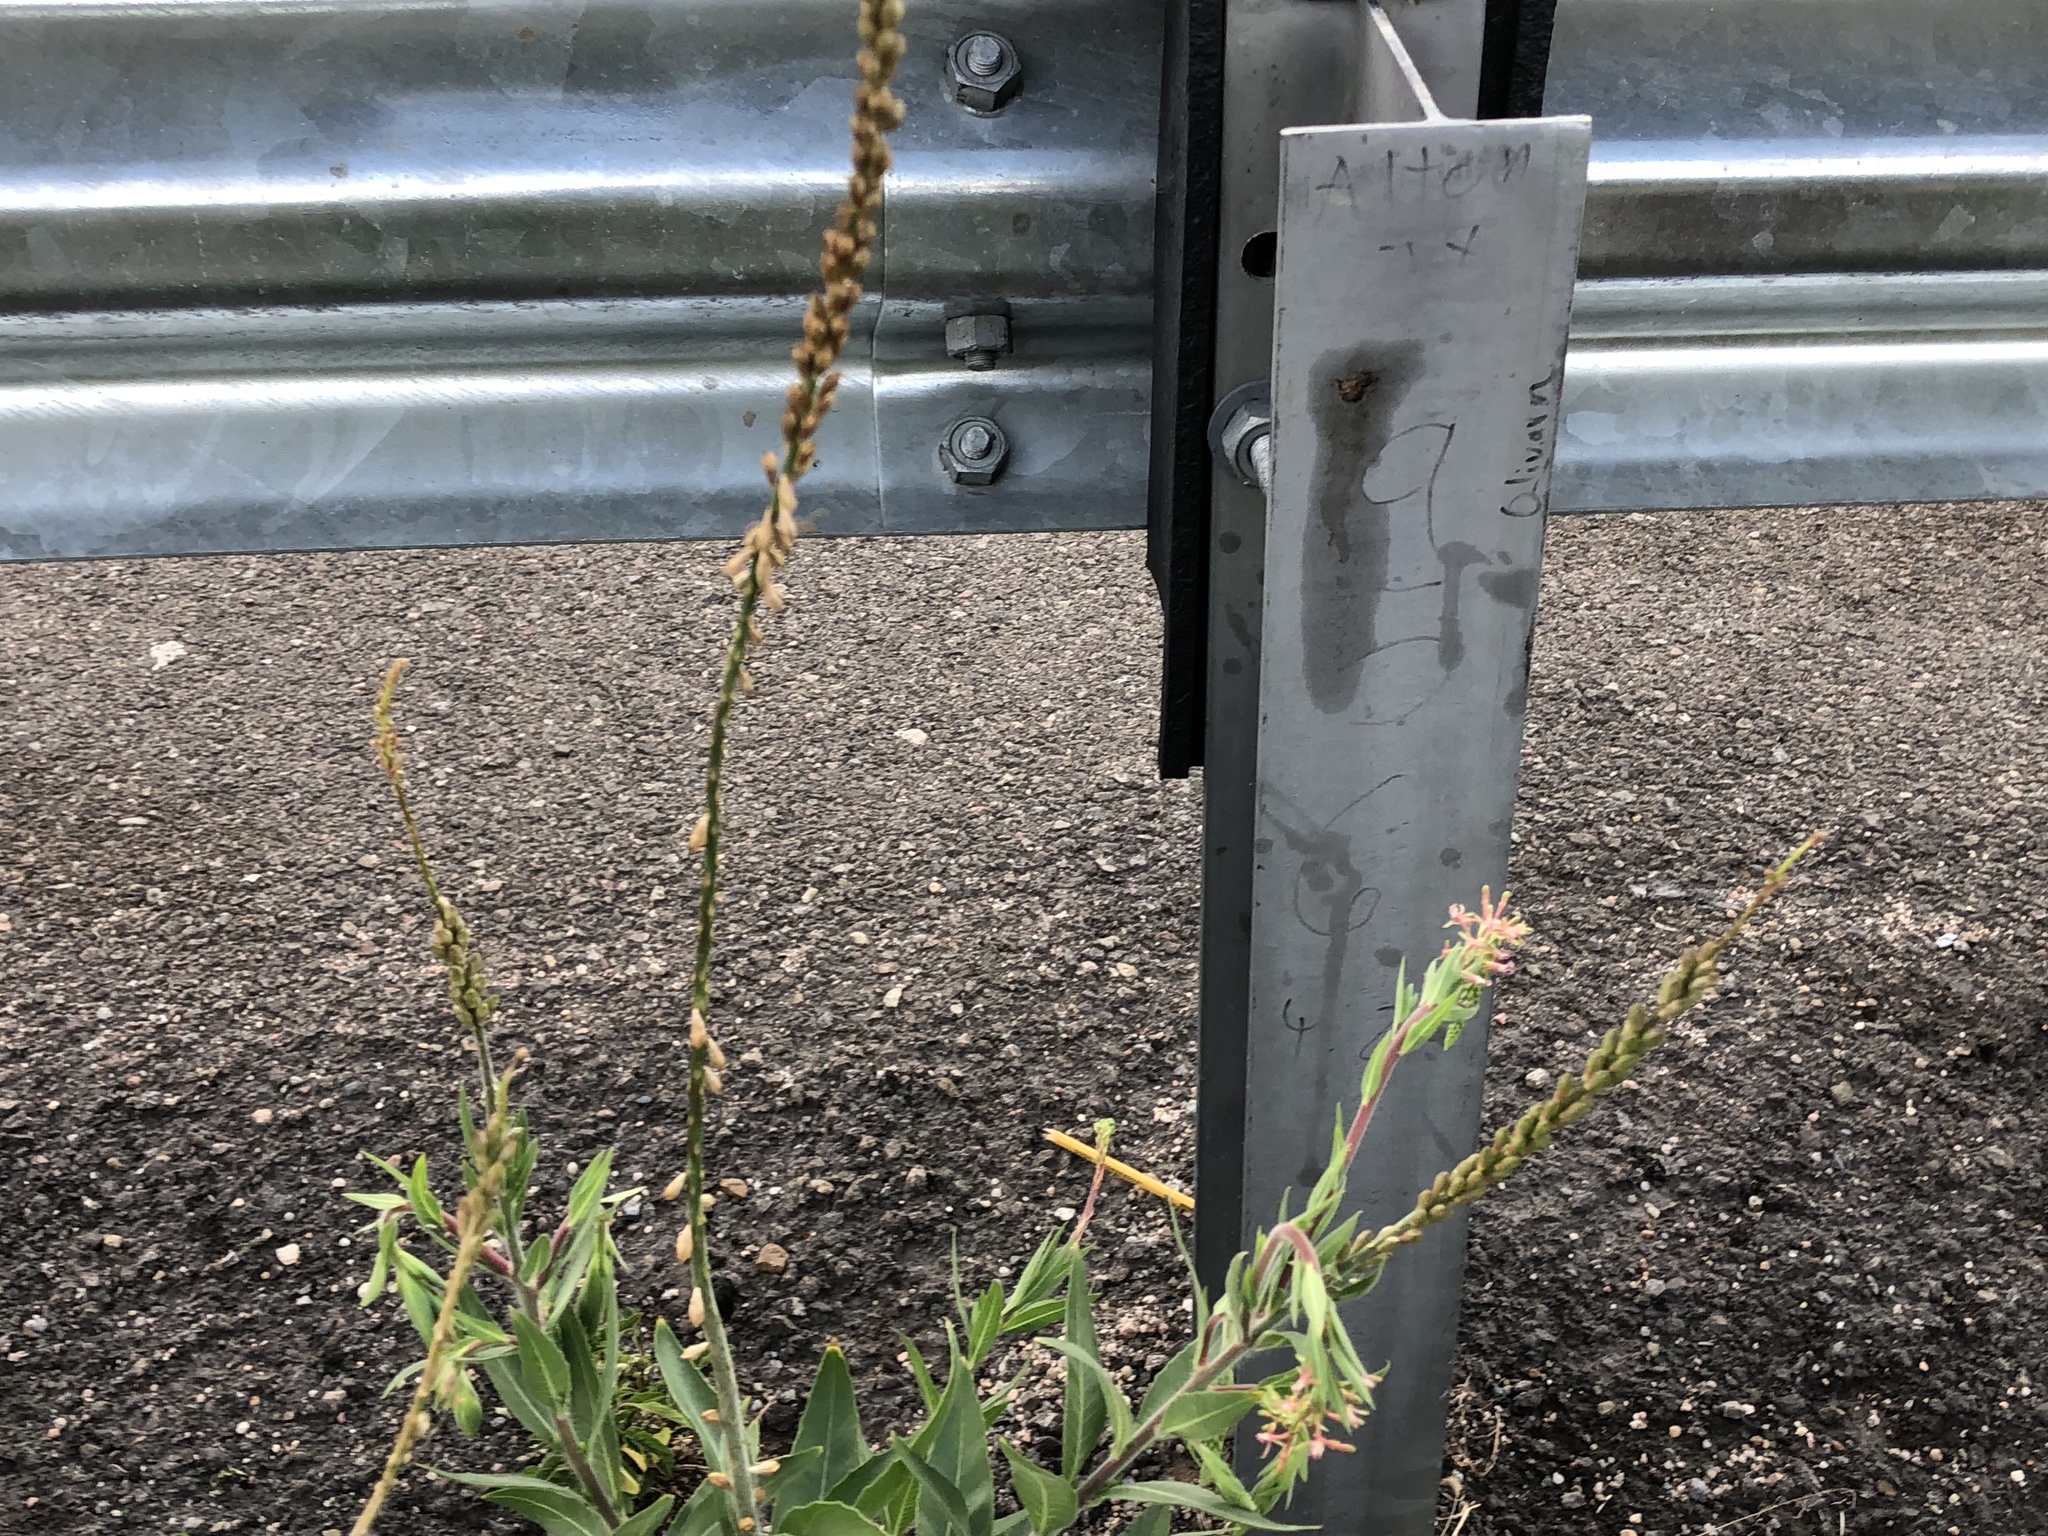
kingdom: Plantae
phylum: Tracheophyta
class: Magnoliopsida
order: Myrtales
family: Onagraceae
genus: Oenothera
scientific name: Oenothera curtiflora
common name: Velvetweed
